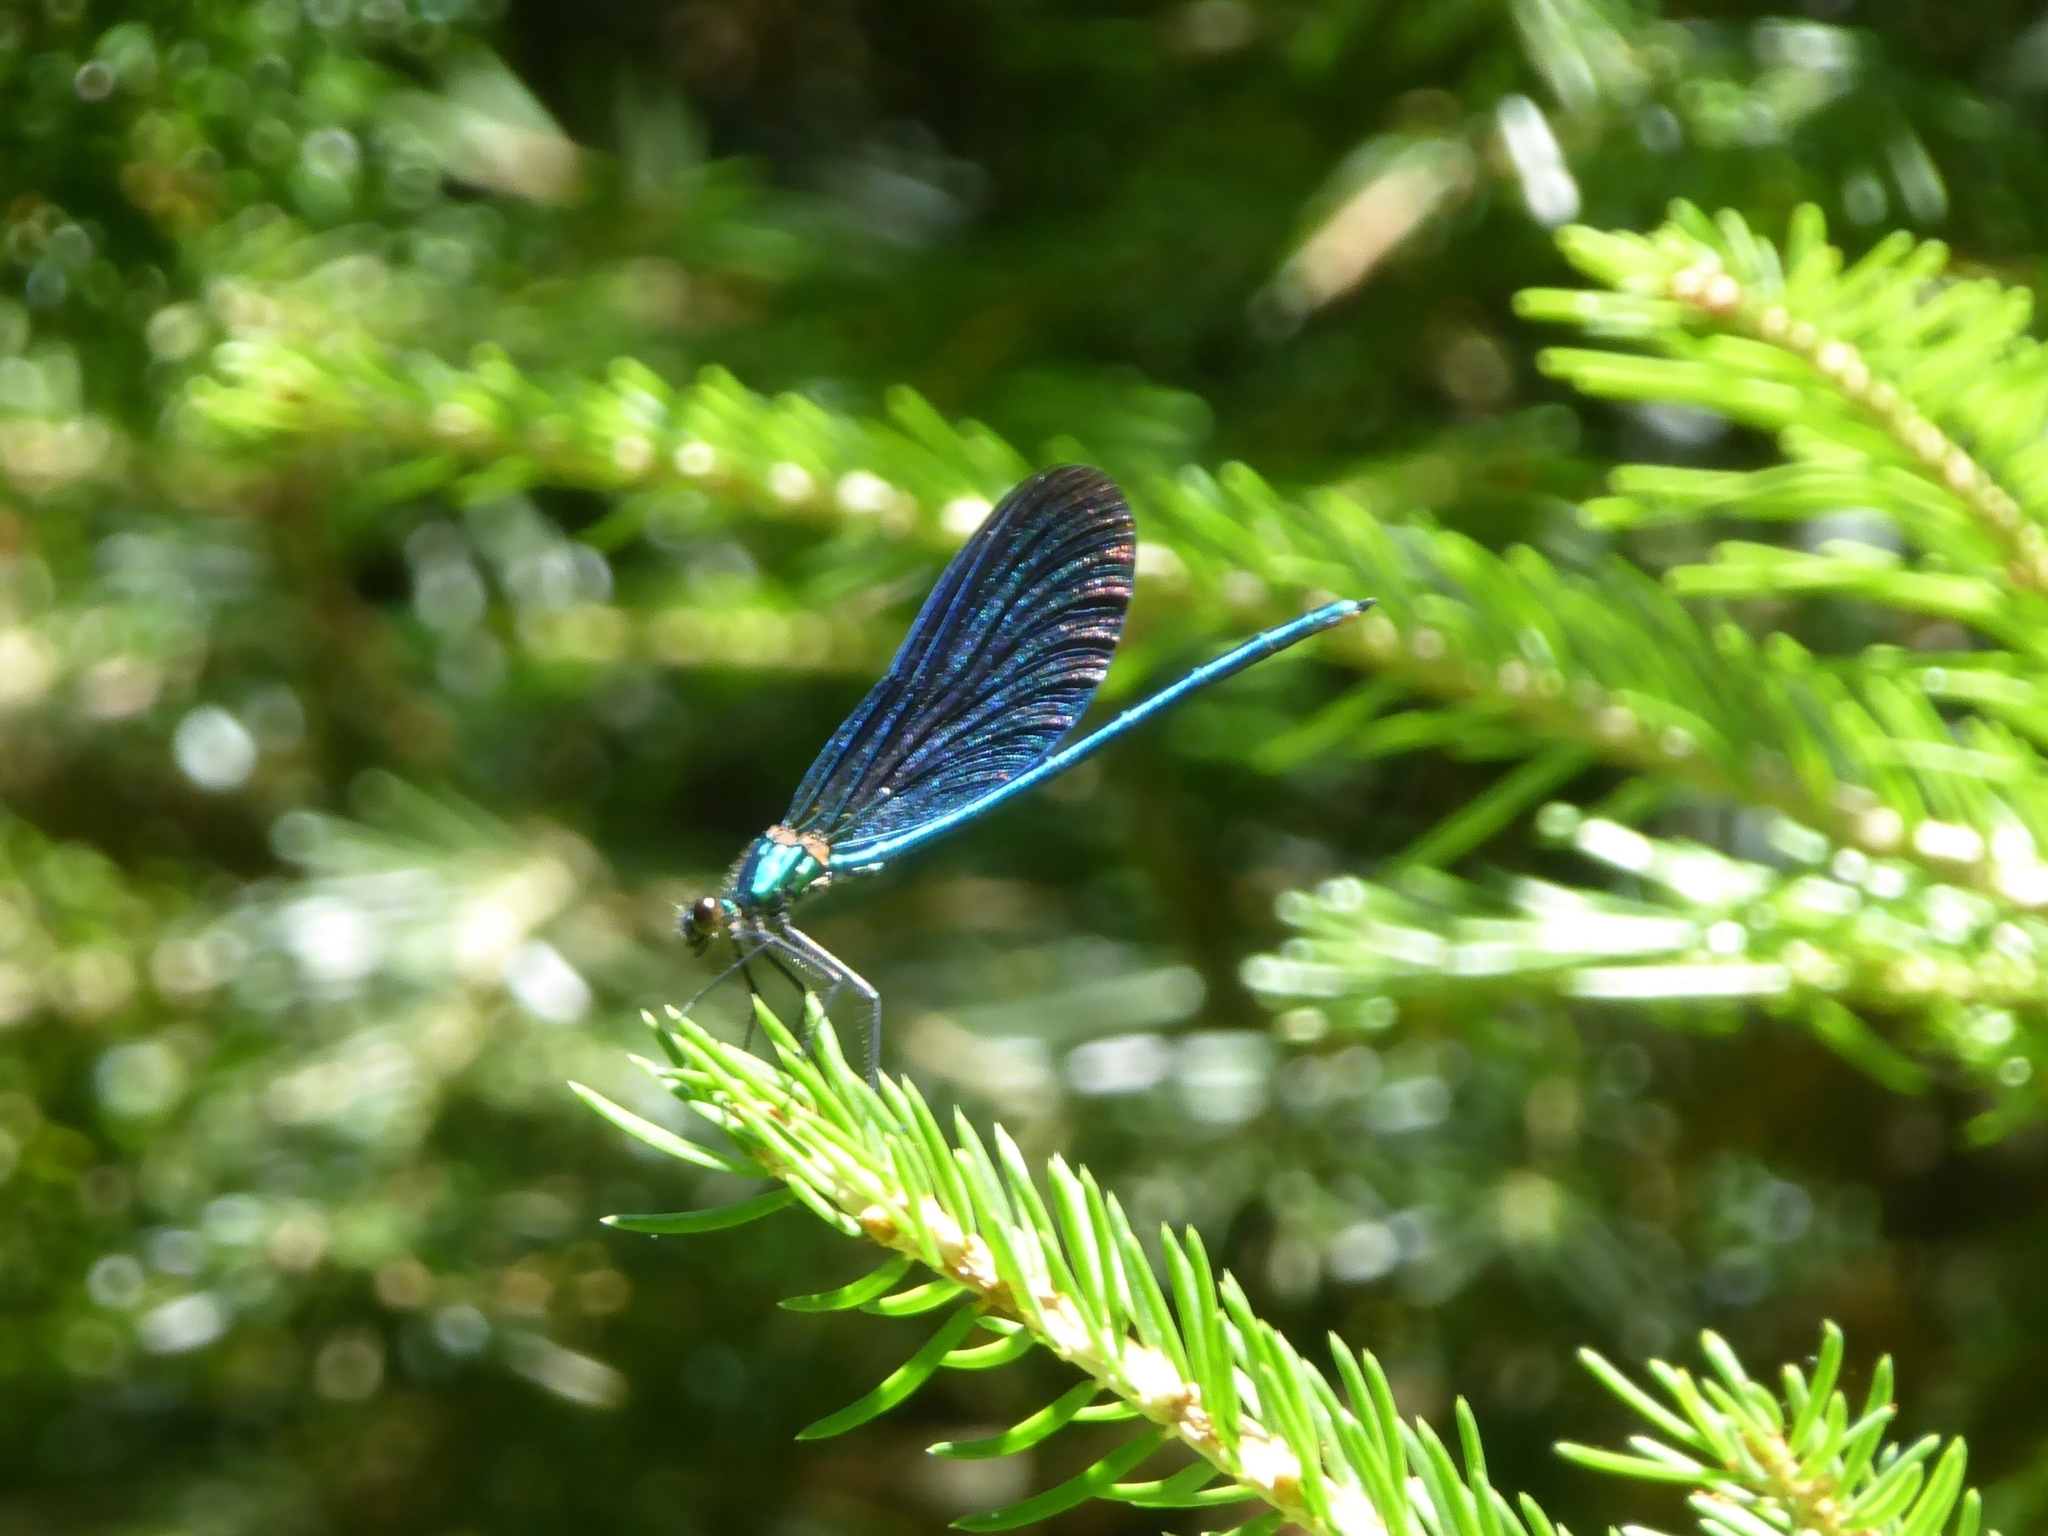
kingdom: Animalia
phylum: Arthropoda
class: Insecta
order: Odonata
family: Calopterygidae
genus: Calopteryx
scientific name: Calopteryx virgo
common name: Beautiful demoiselle
